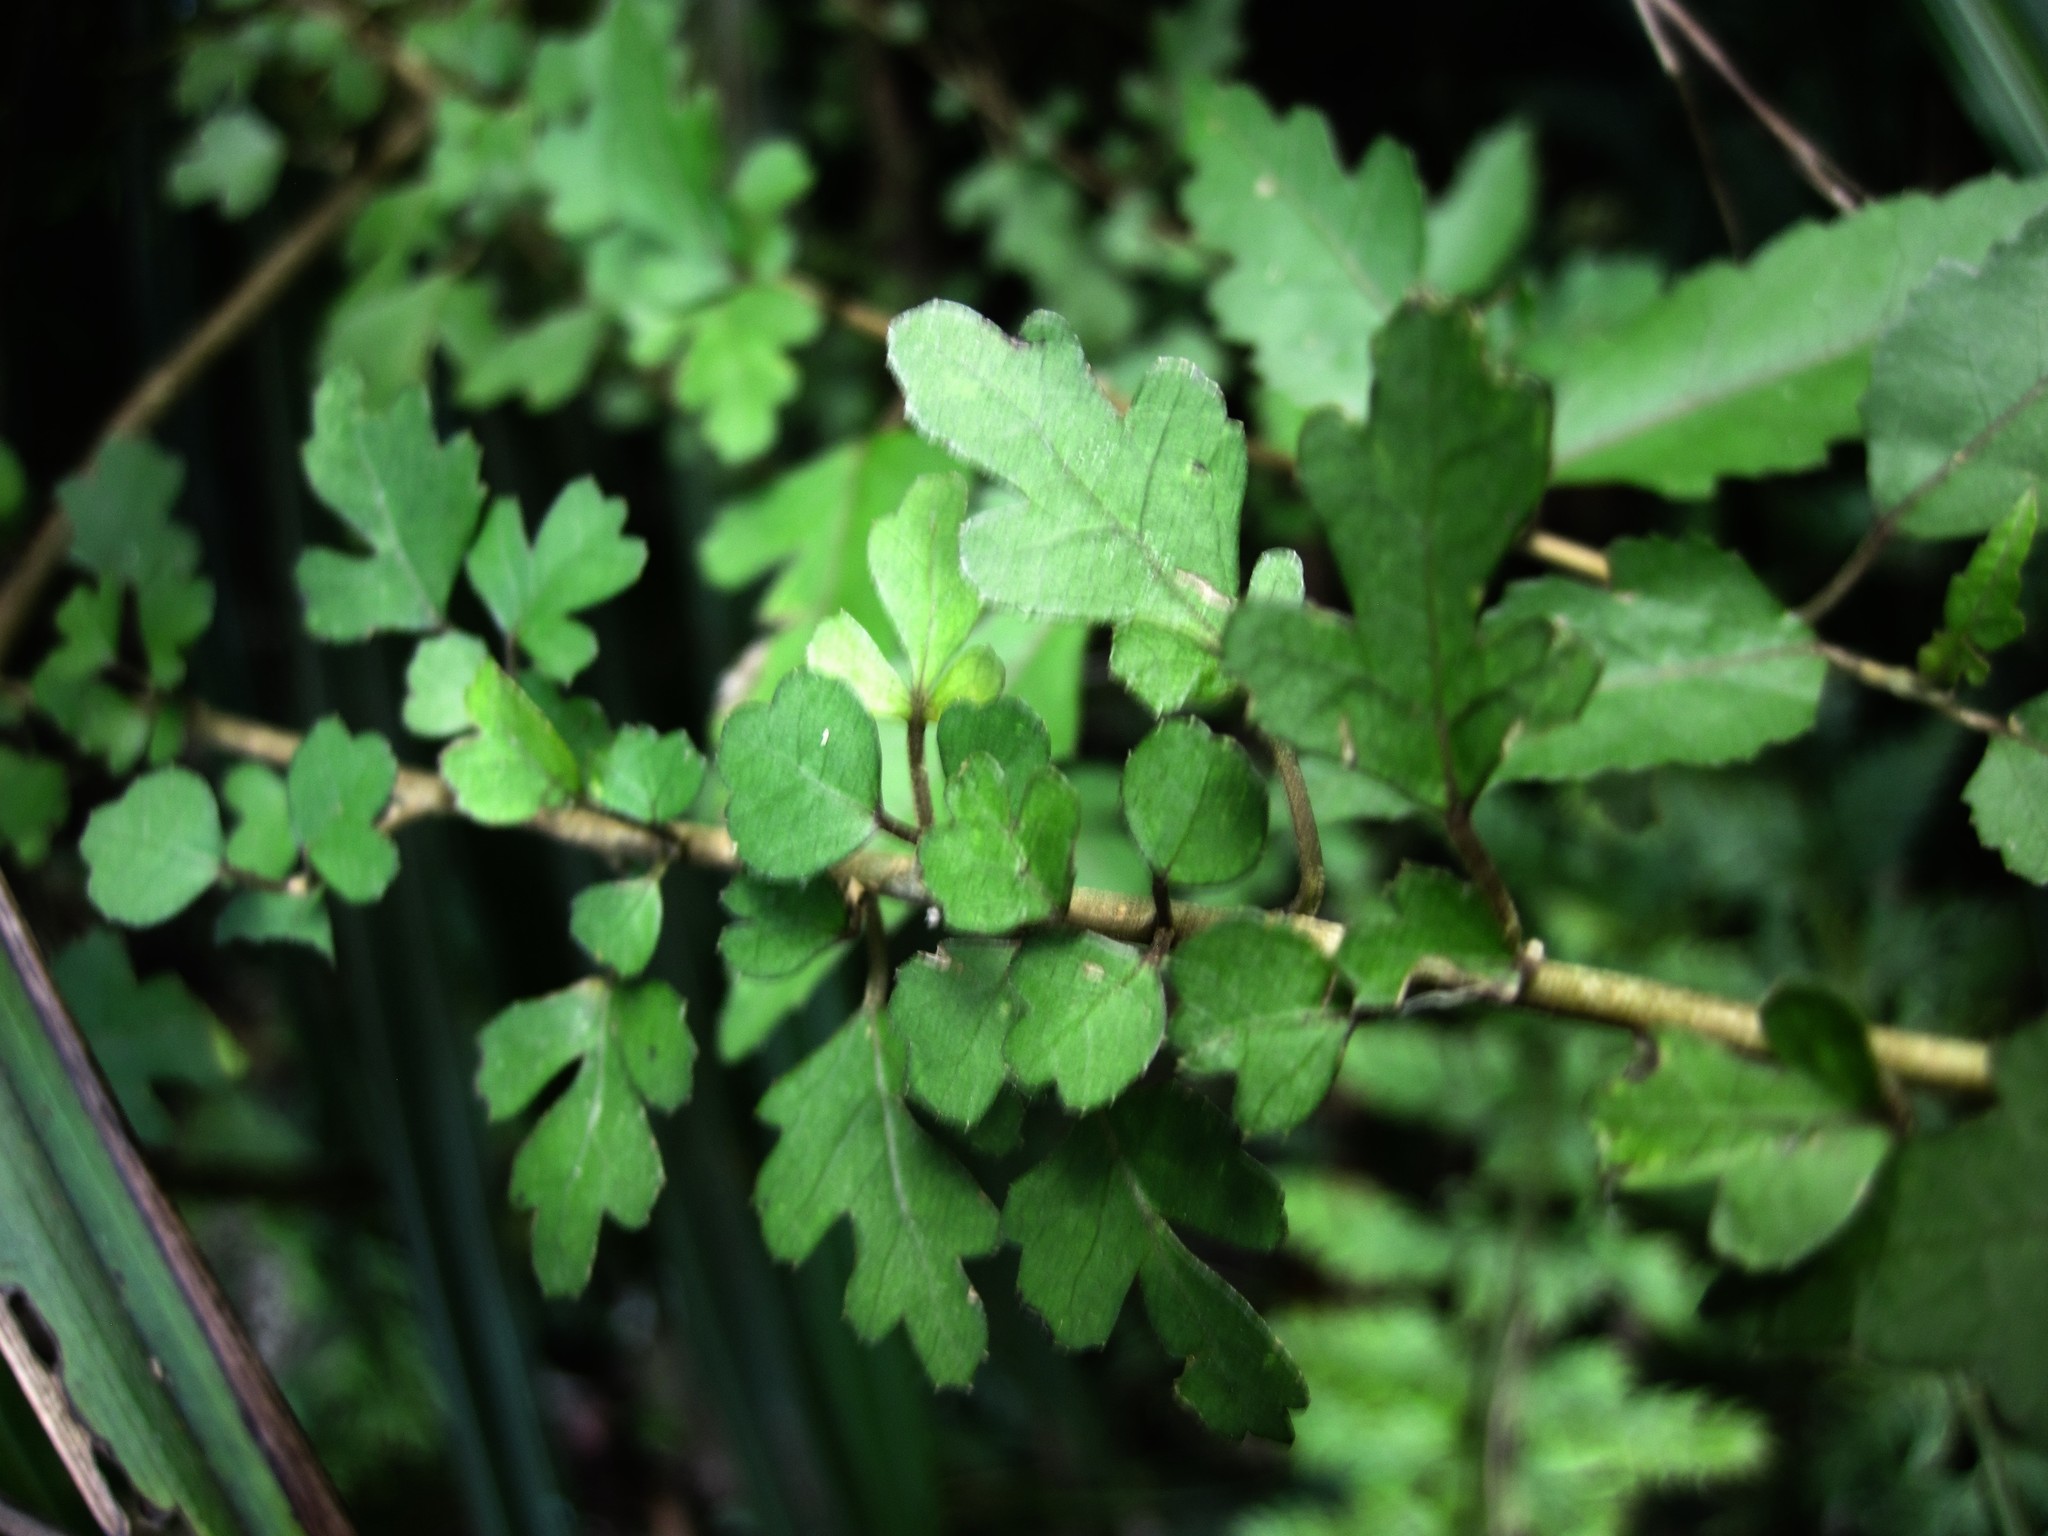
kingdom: Plantae
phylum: Tracheophyta
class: Magnoliopsida
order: Malvales
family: Malvaceae
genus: Hoheria
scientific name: Hoheria sexstylosa
